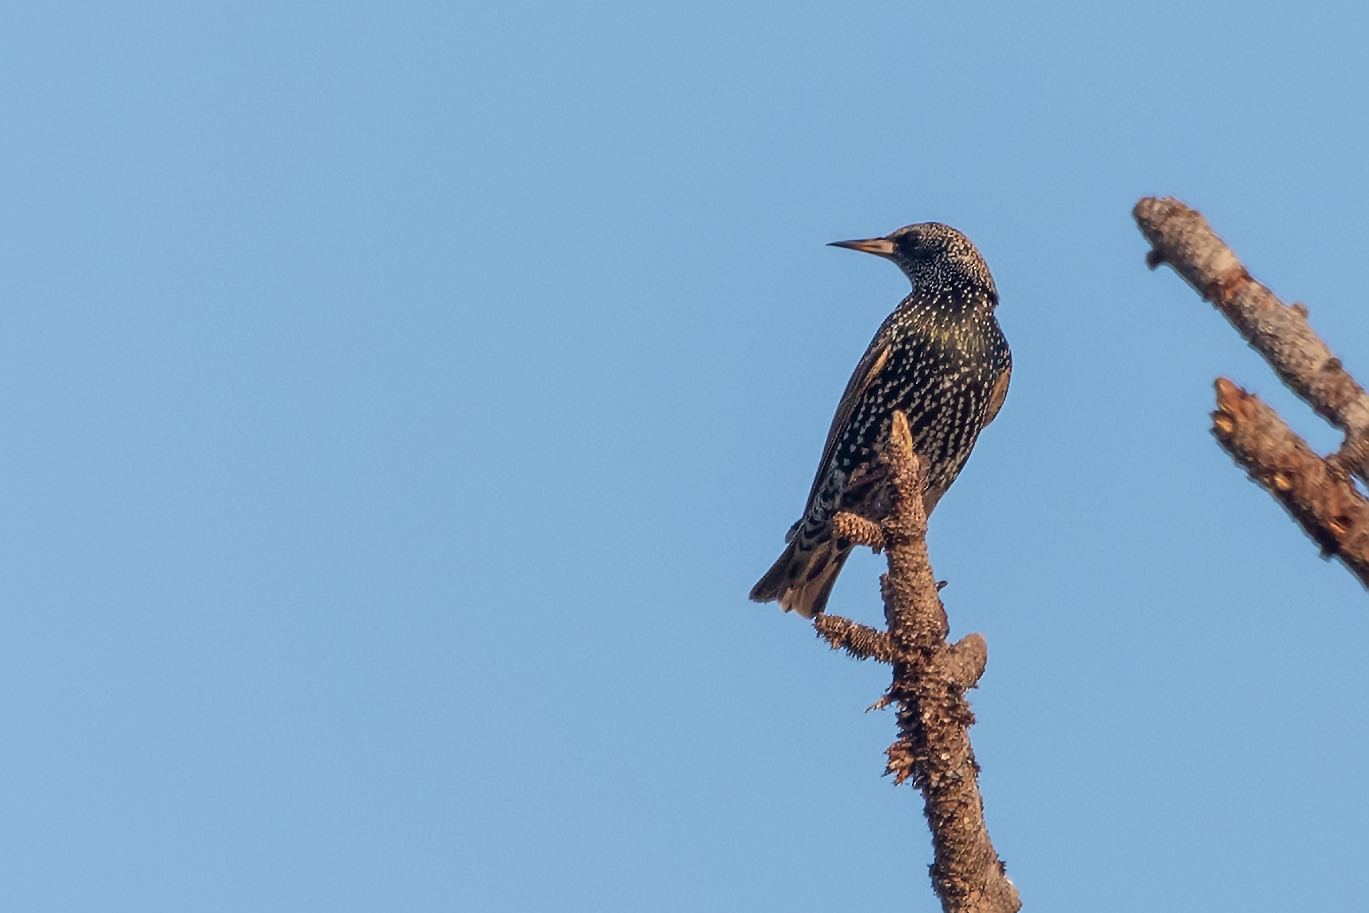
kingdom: Animalia
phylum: Chordata
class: Aves
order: Passeriformes
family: Sturnidae
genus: Sturnus
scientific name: Sturnus vulgaris
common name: Common starling
